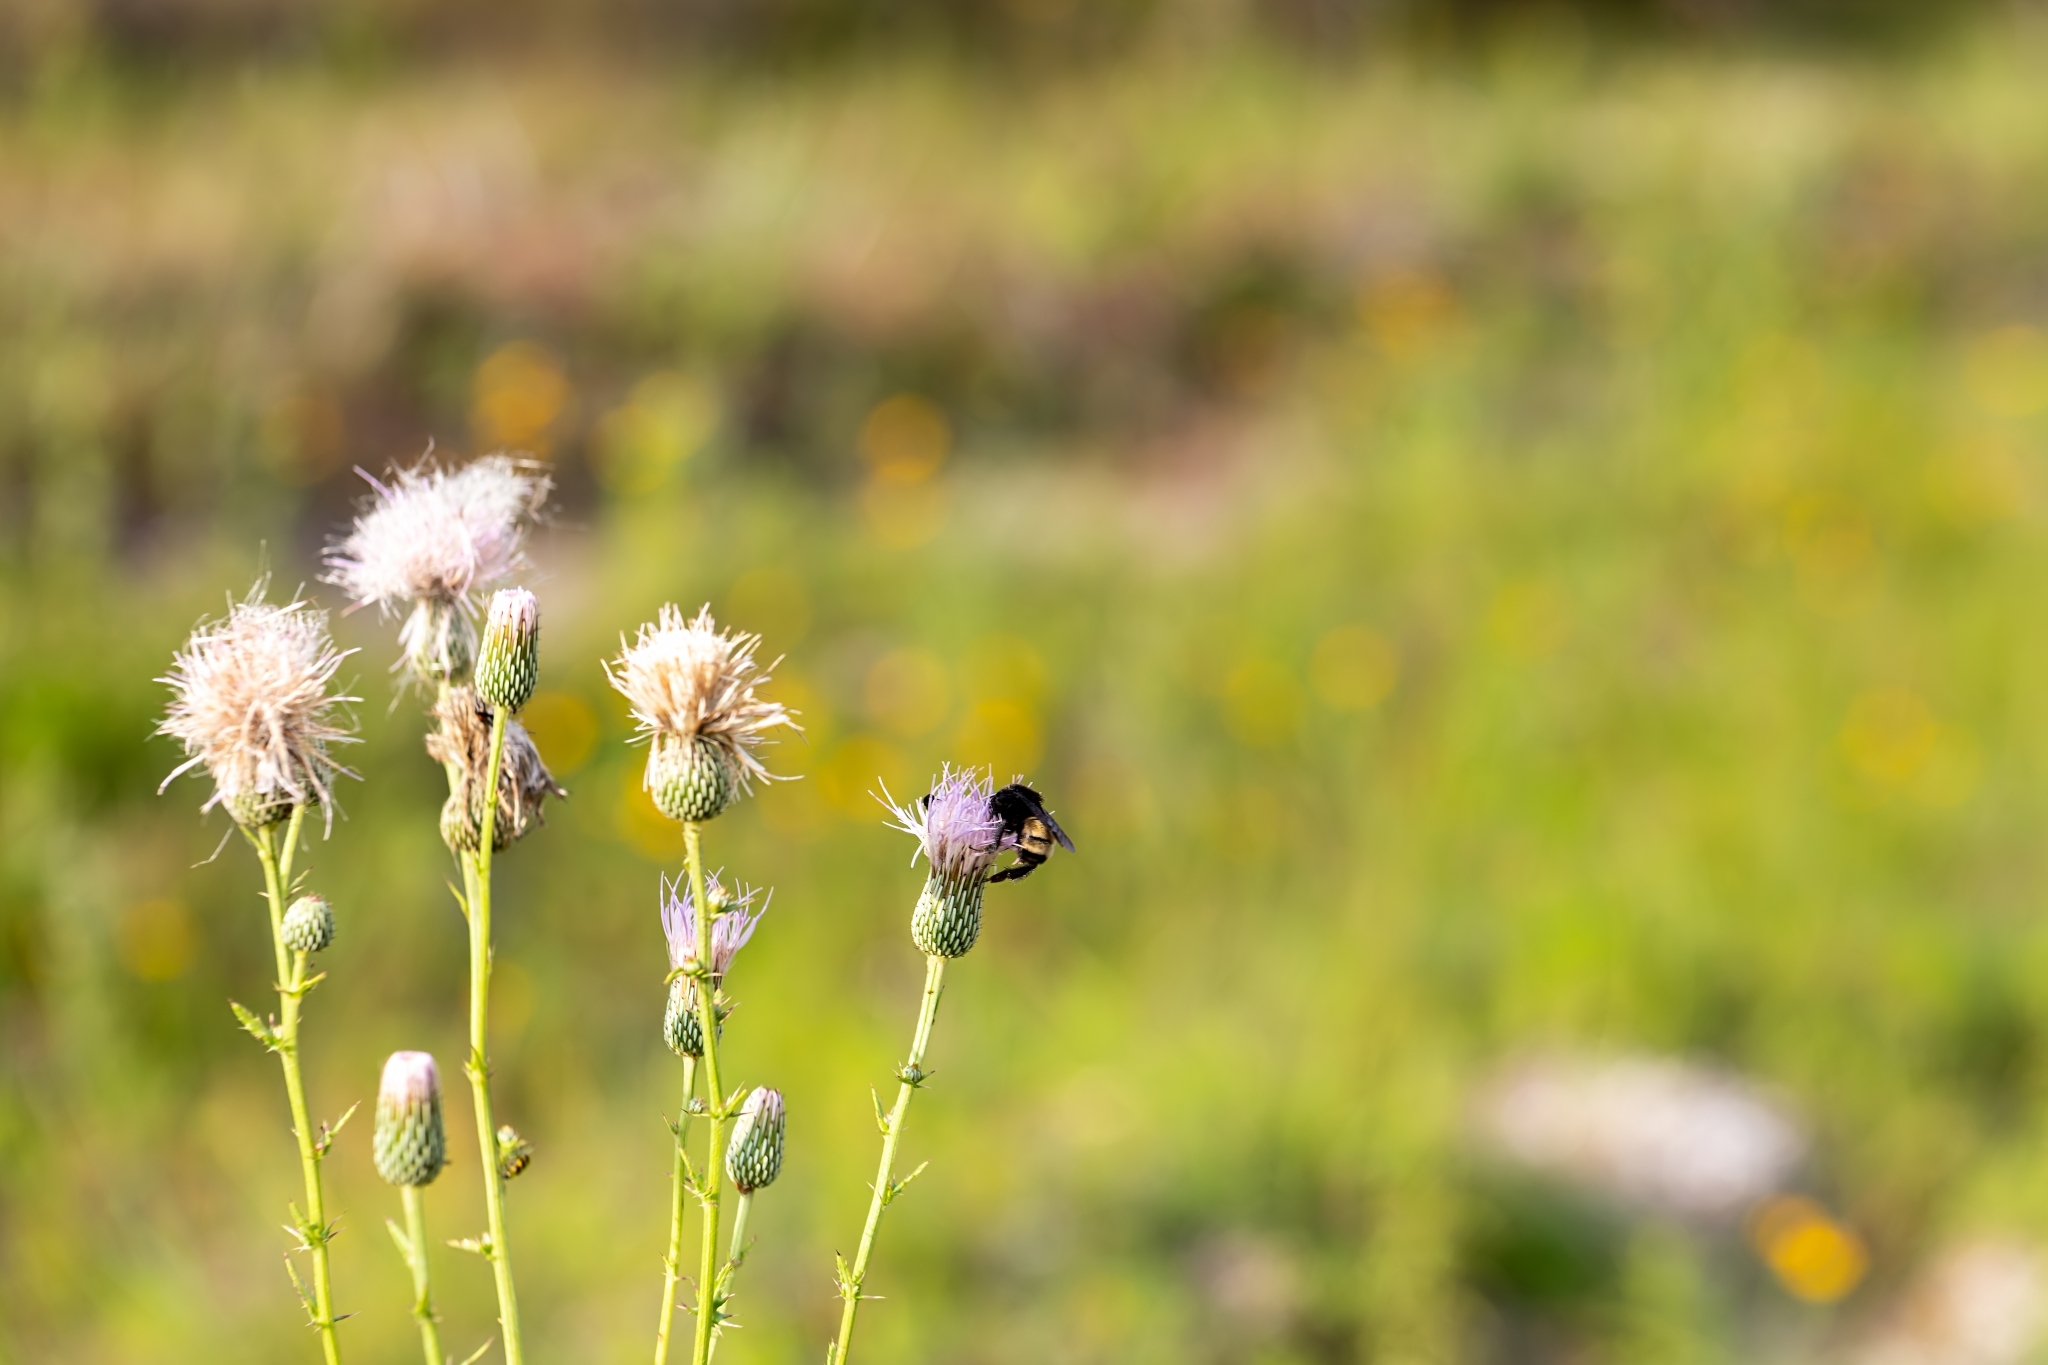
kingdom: Animalia
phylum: Arthropoda
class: Insecta
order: Hymenoptera
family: Apidae
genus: Bombus
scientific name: Bombus pensylvanicus
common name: Bumble bee
